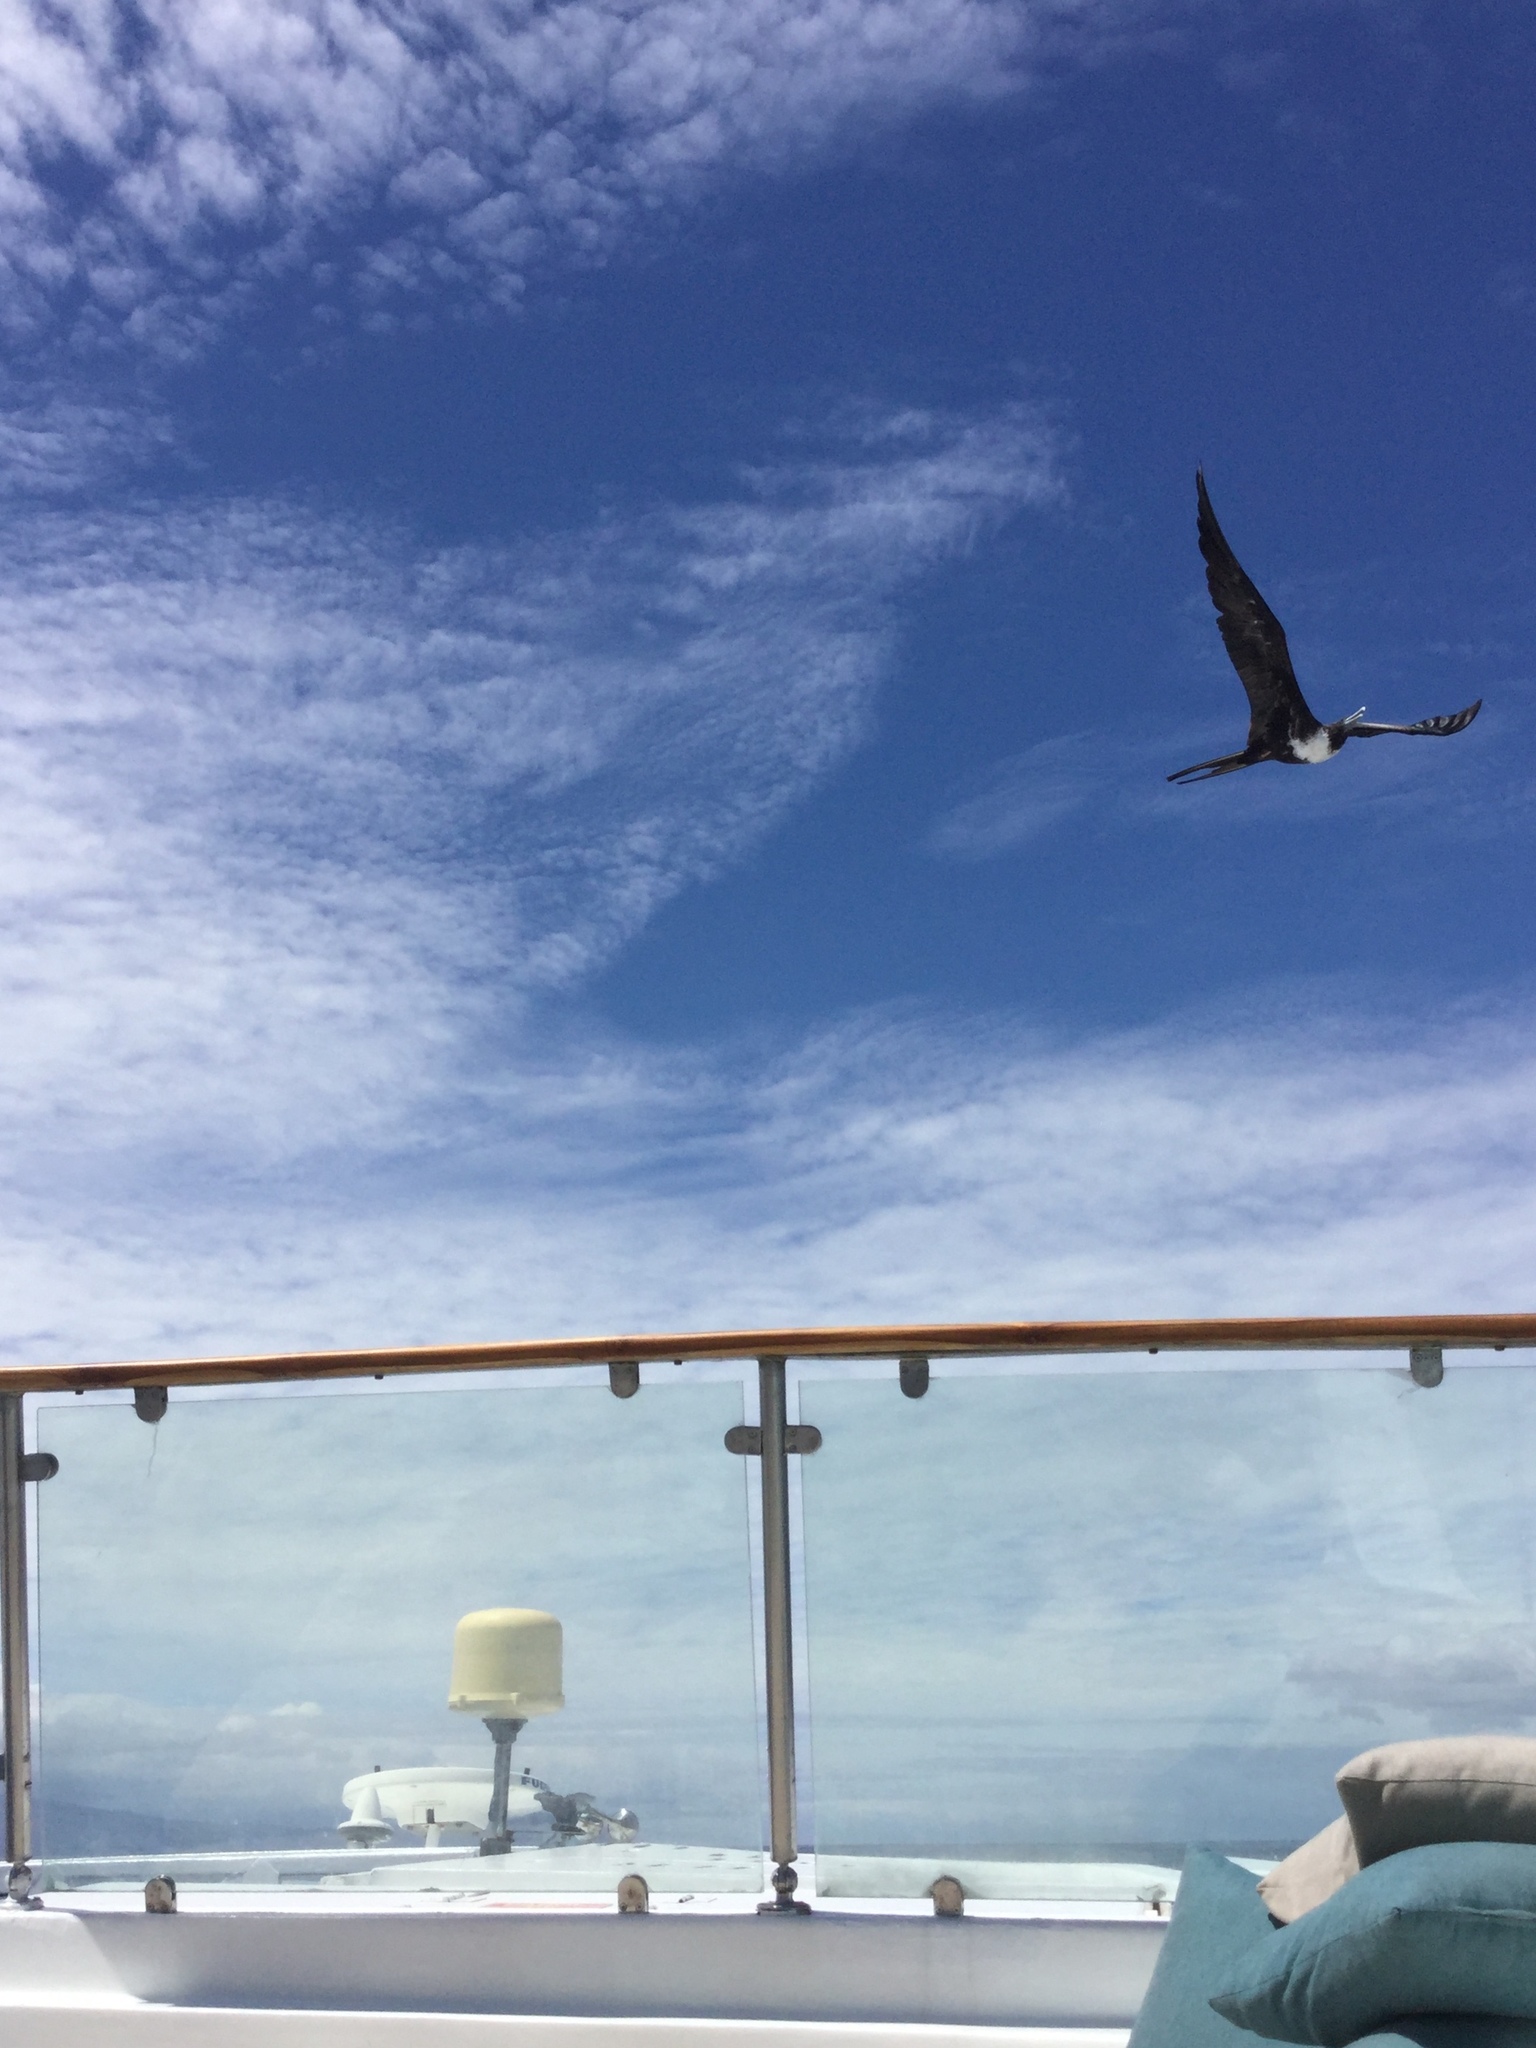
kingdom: Animalia
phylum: Chordata
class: Aves
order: Suliformes
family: Fregatidae
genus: Fregata
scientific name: Fregata magnificens
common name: Magnificent frigatebird
